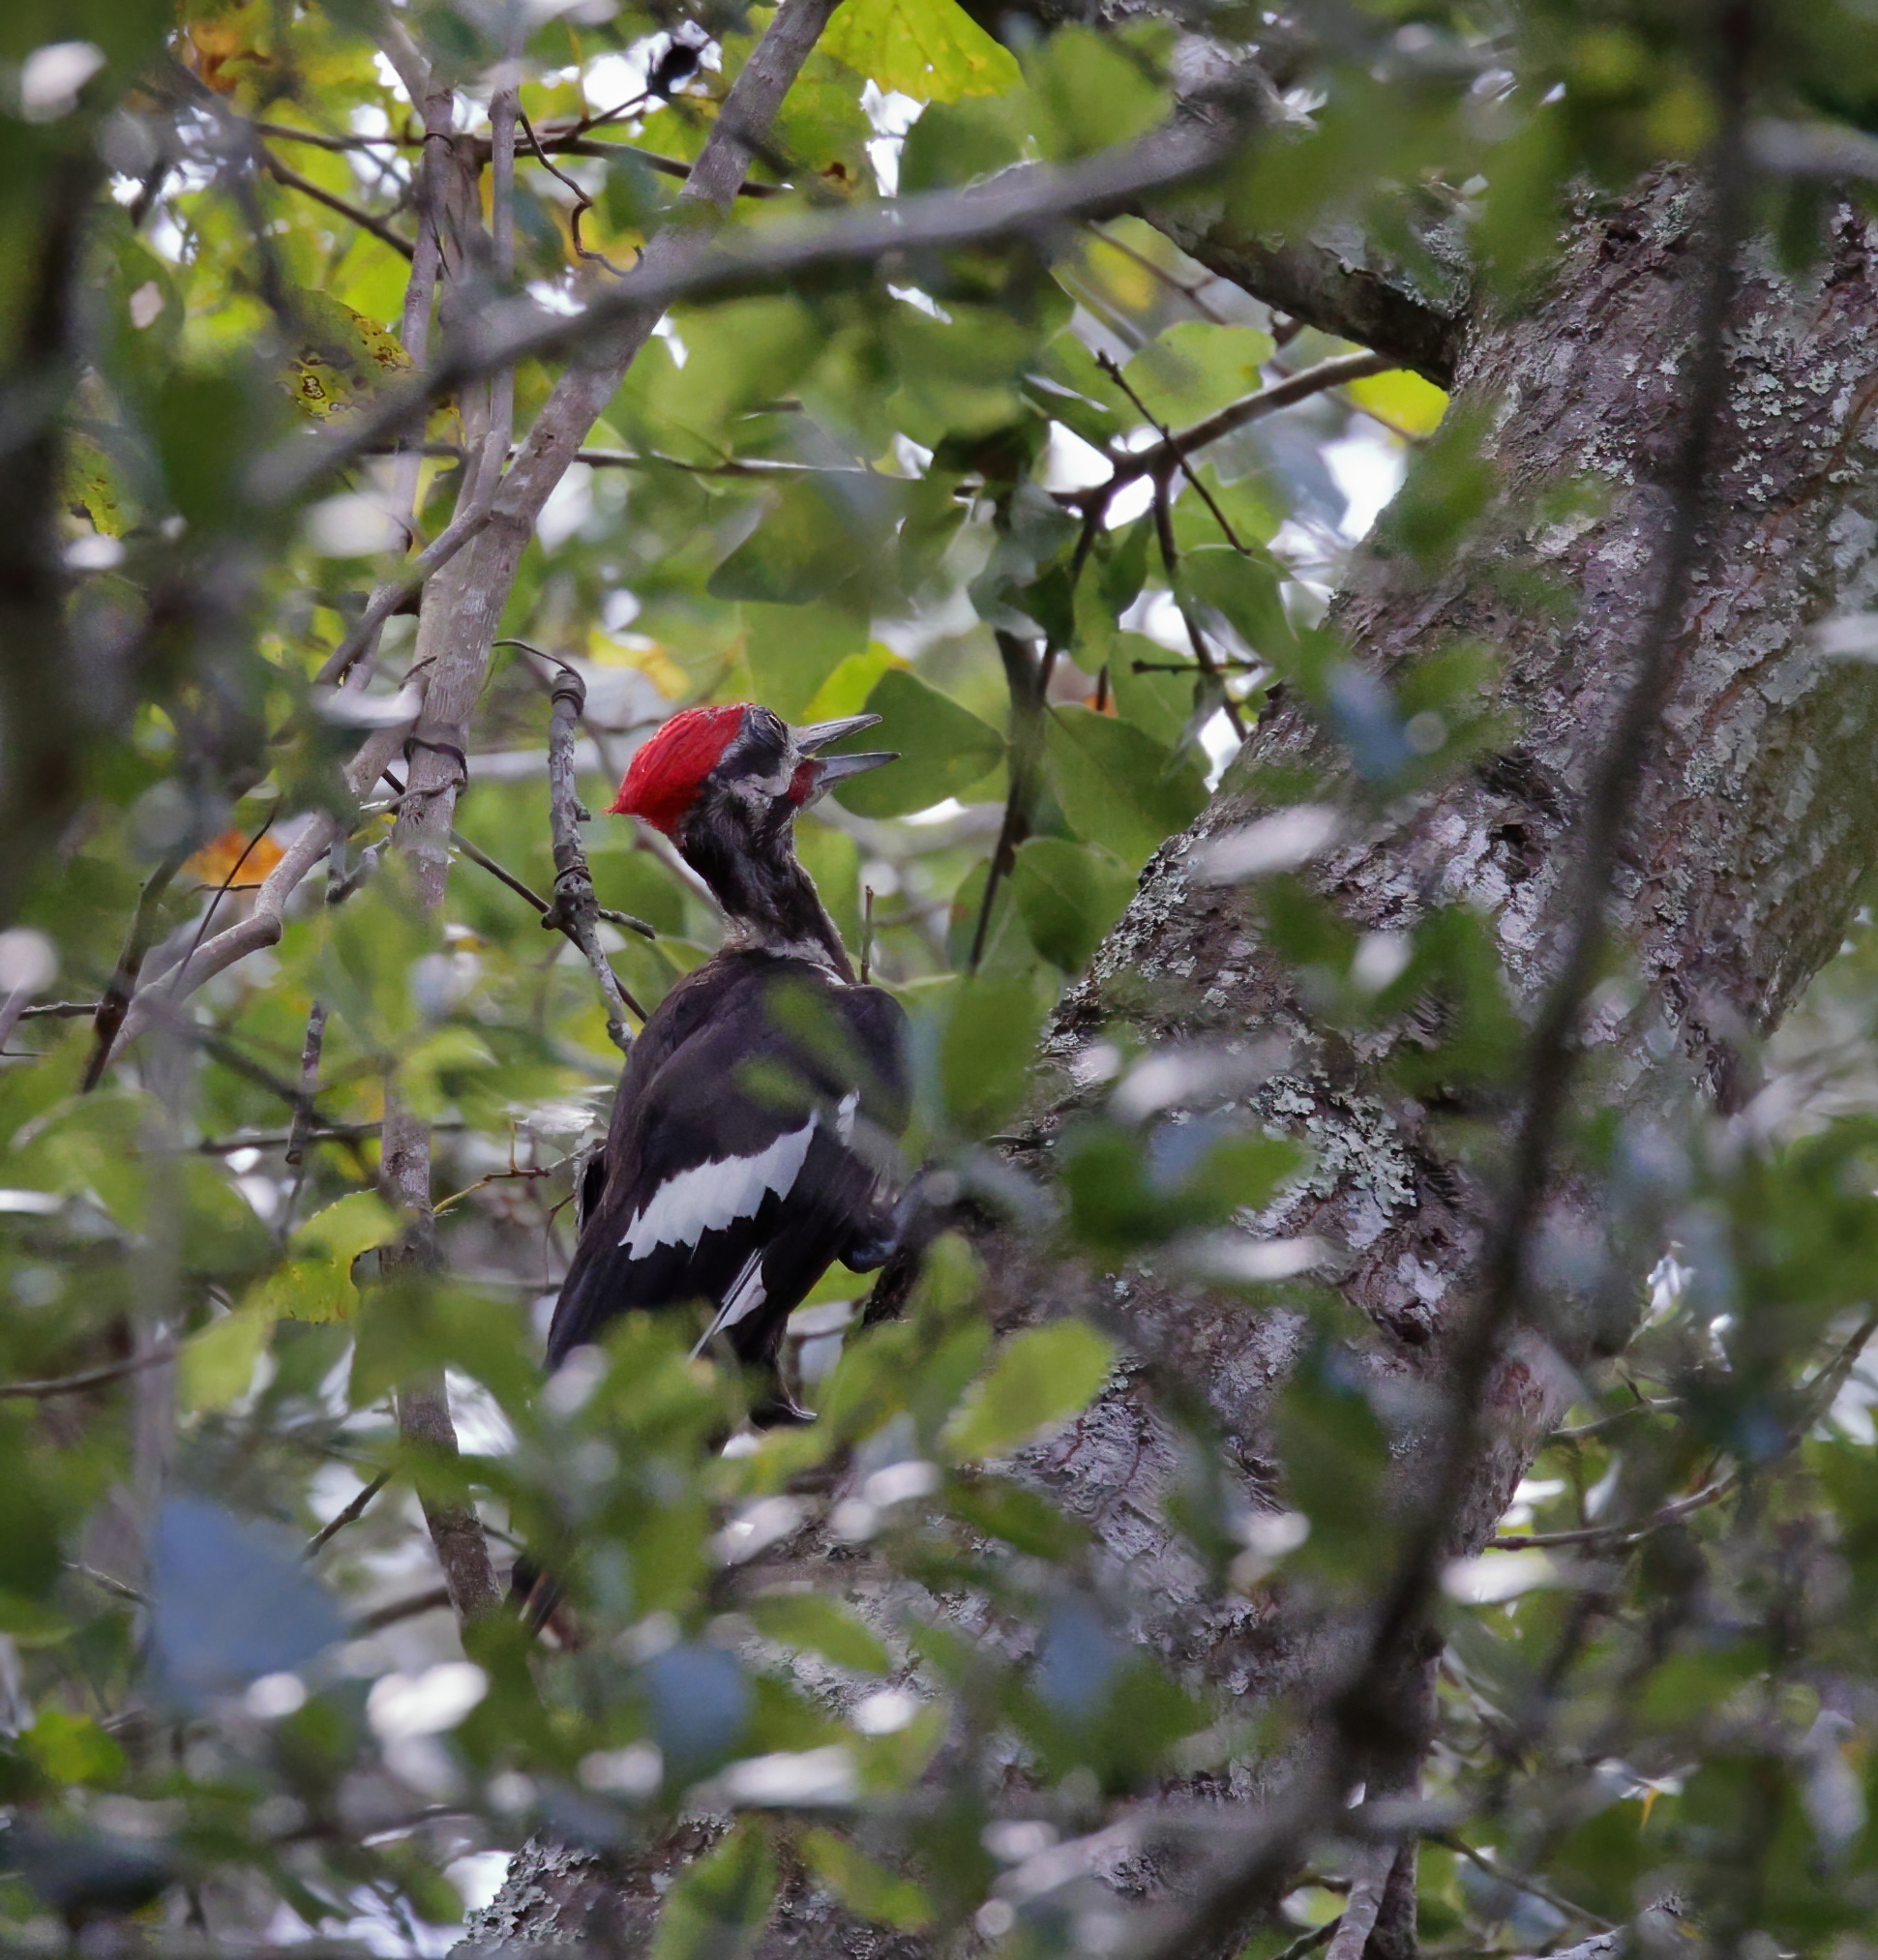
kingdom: Animalia
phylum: Chordata
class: Aves
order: Piciformes
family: Picidae
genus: Dryocopus
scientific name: Dryocopus pileatus
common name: Pileated woodpecker
